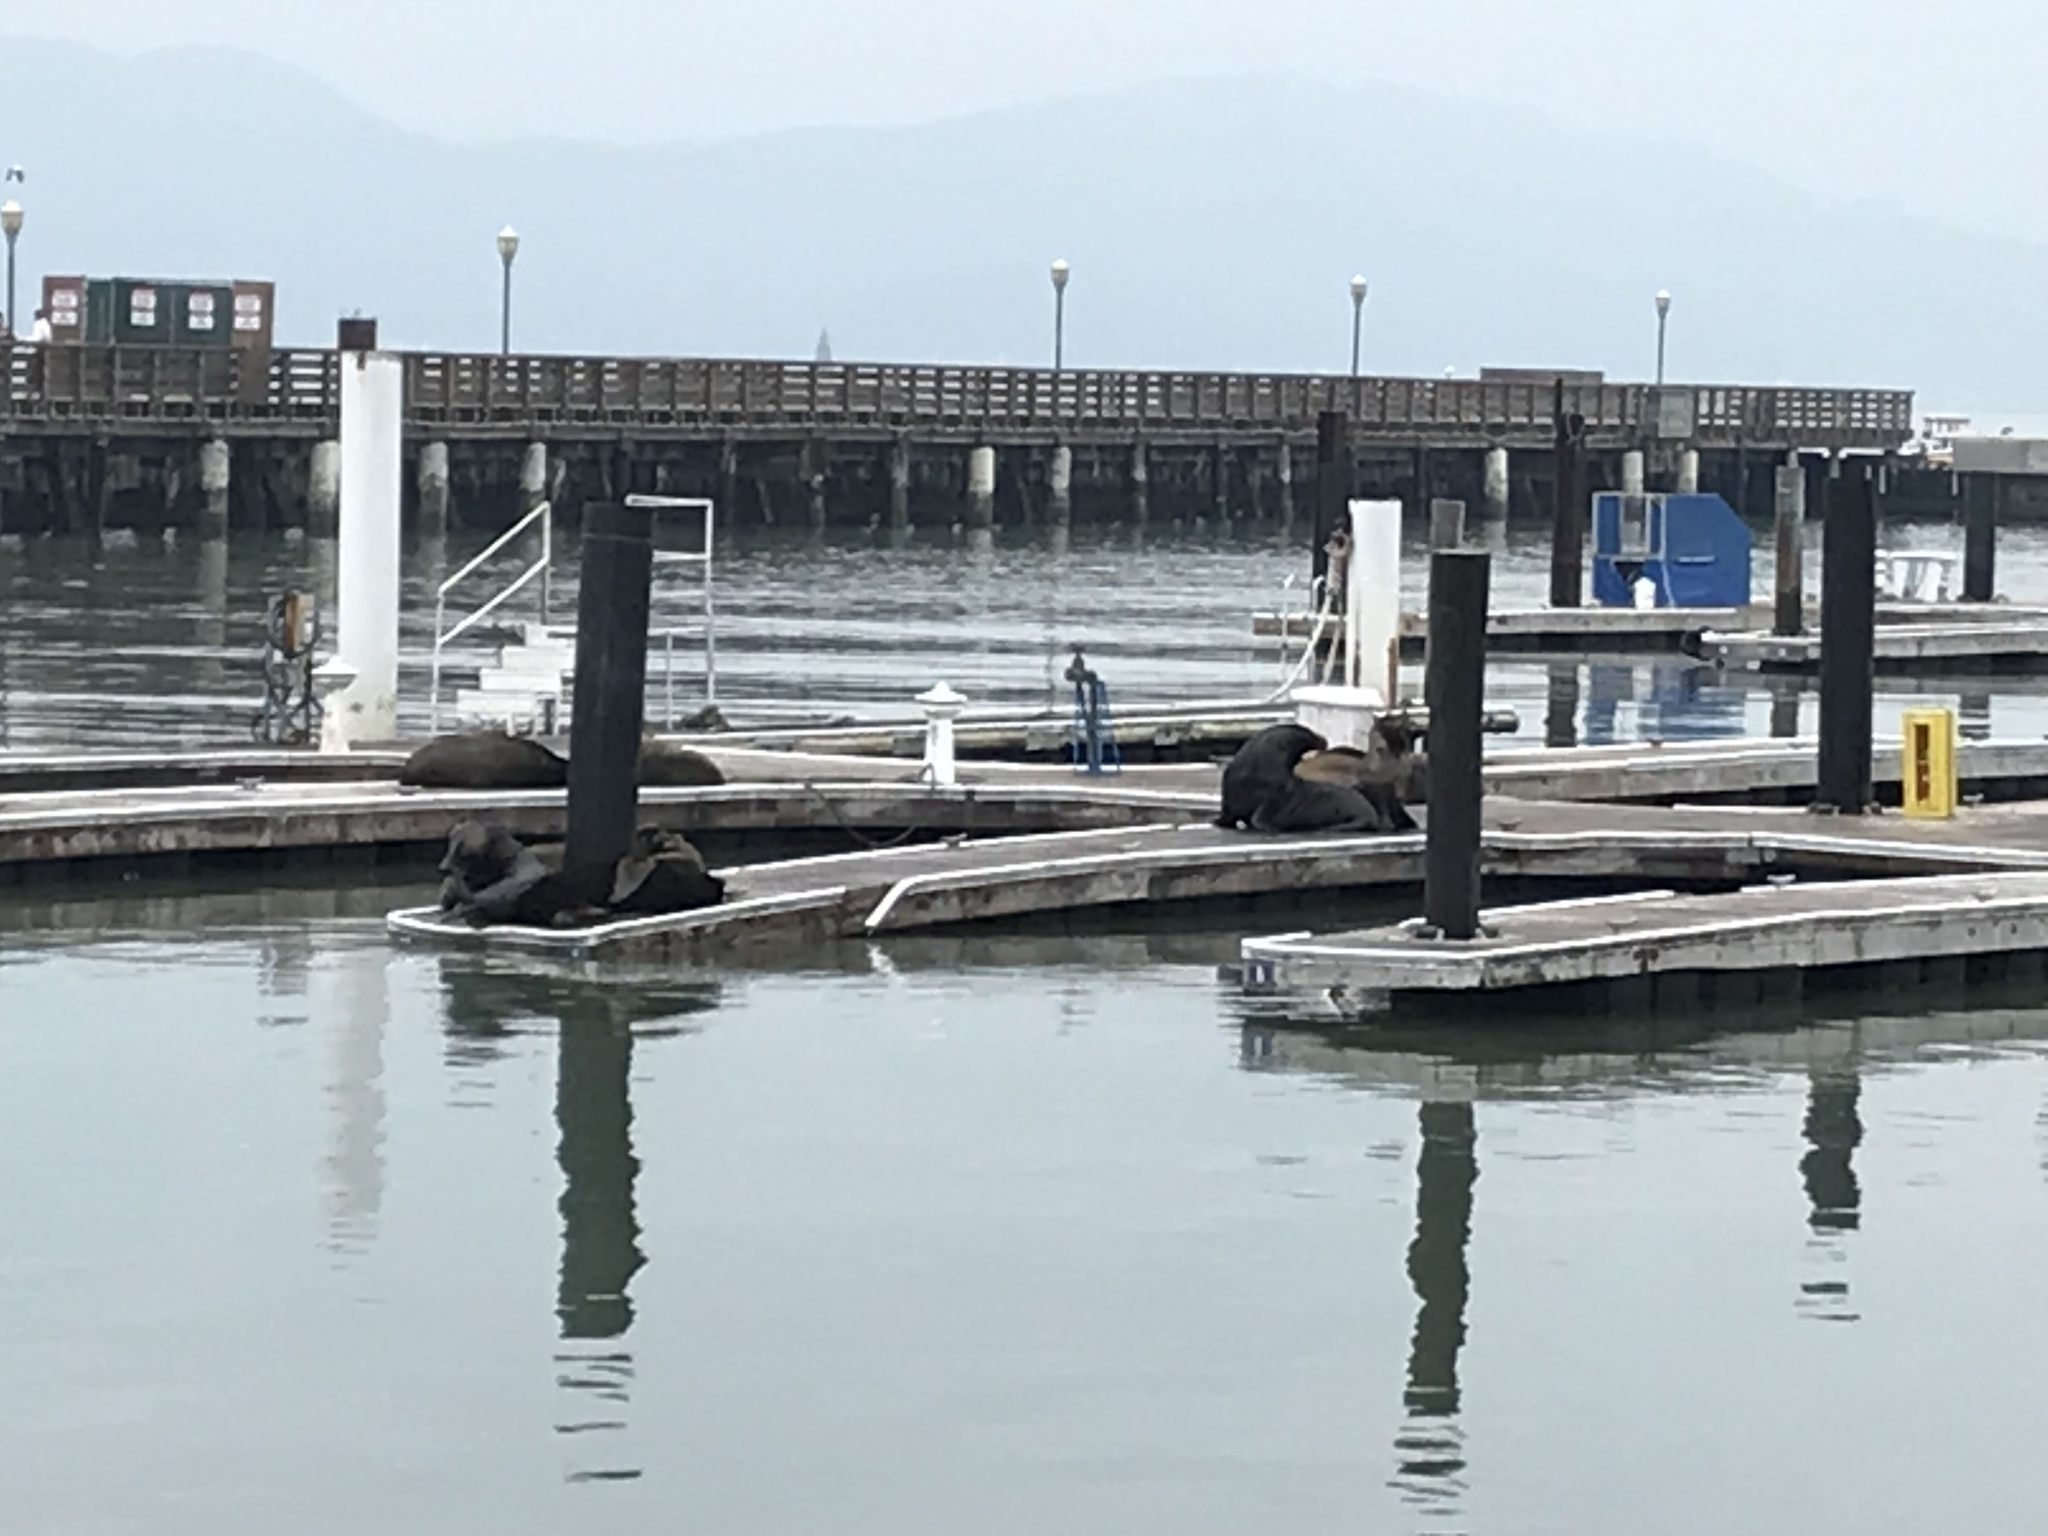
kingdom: Animalia
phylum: Chordata
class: Mammalia
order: Carnivora
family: Otariidae
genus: Zalophus
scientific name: Zalophus californianus
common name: California sea lion
